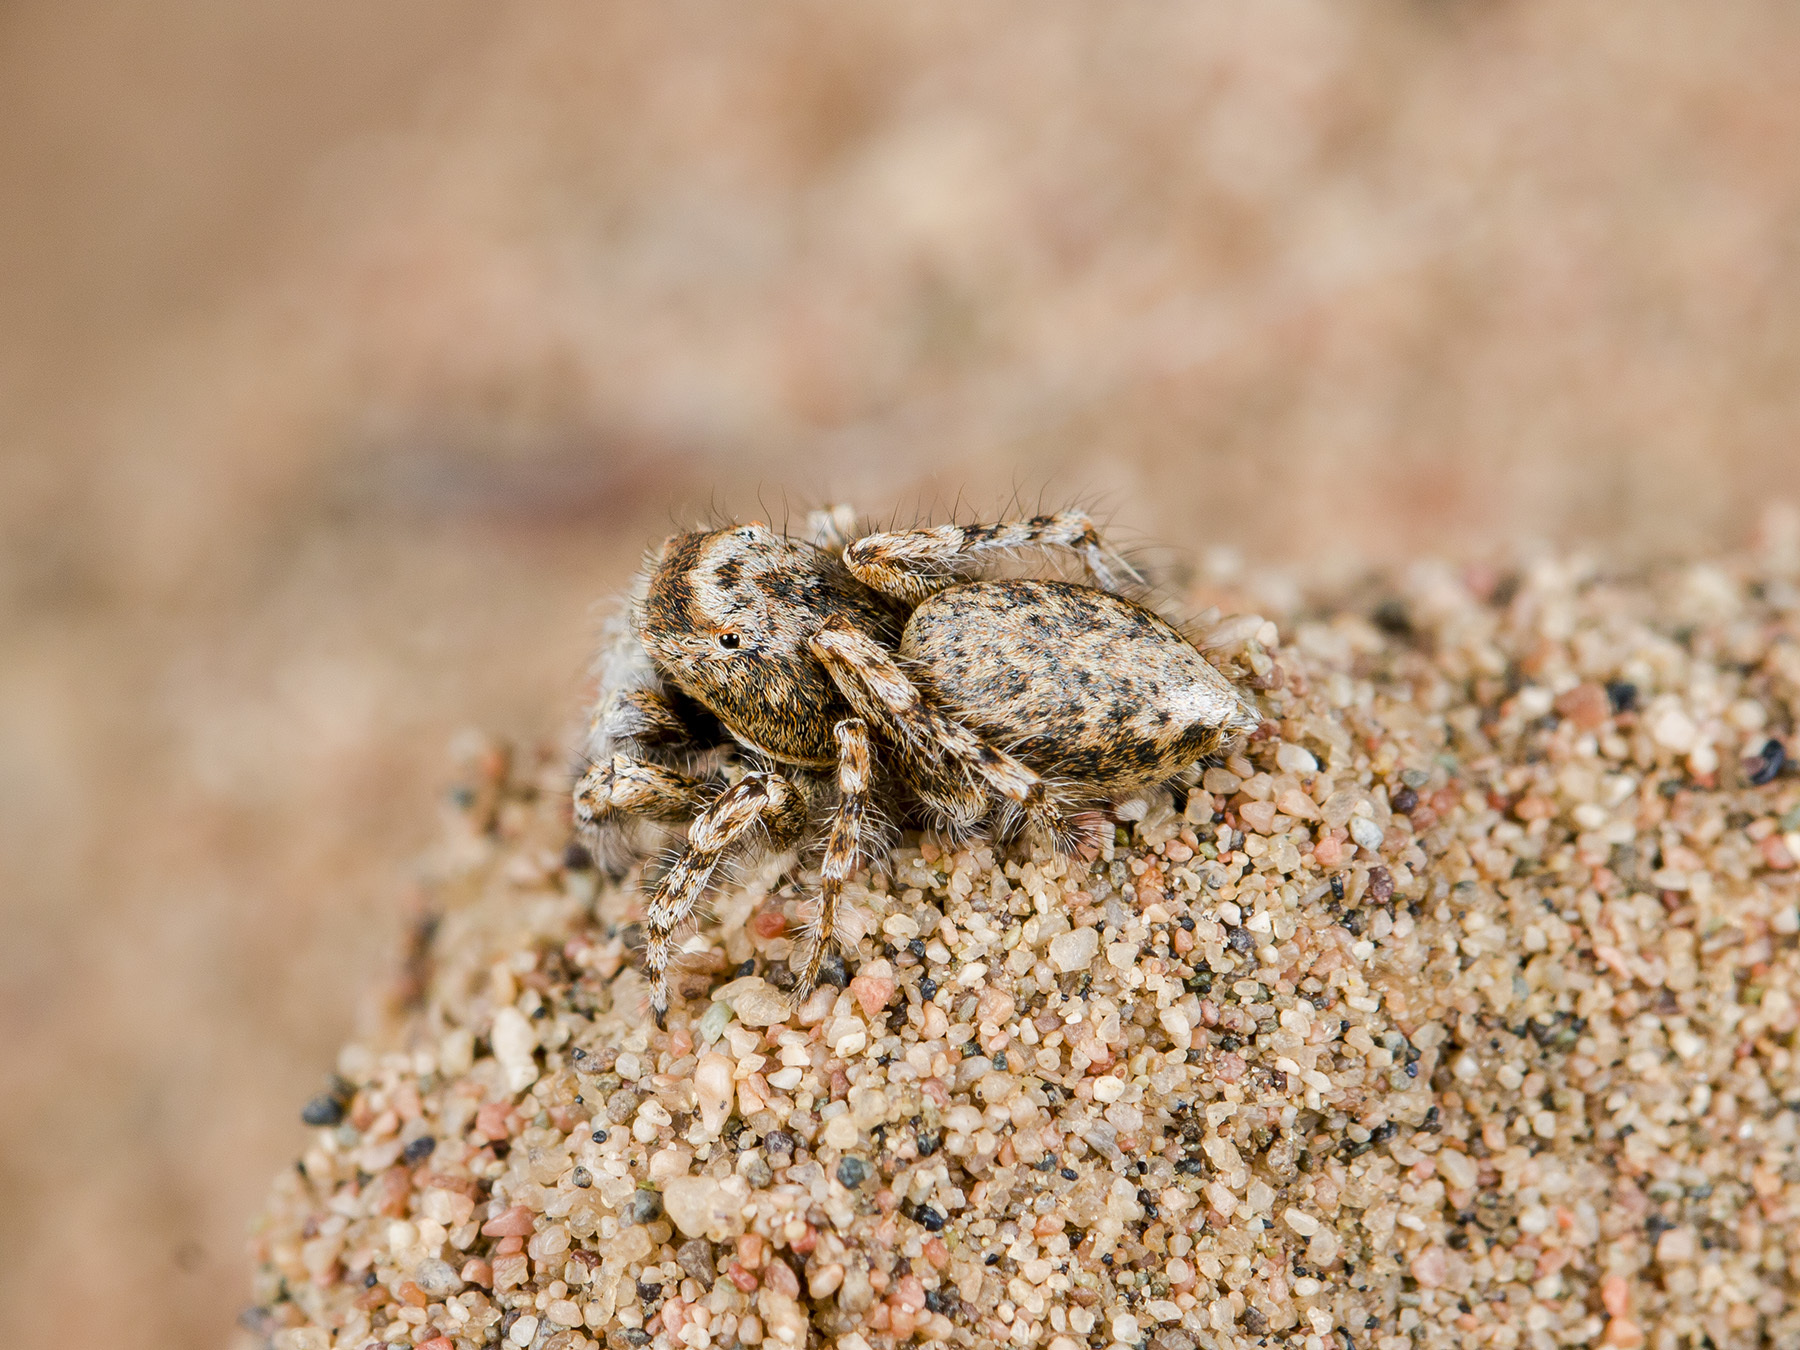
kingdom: Animalia
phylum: Arthropoda
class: Arachnida
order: Araneae
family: Salticidae
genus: Yllenus
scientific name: Yllenus uiguricus
